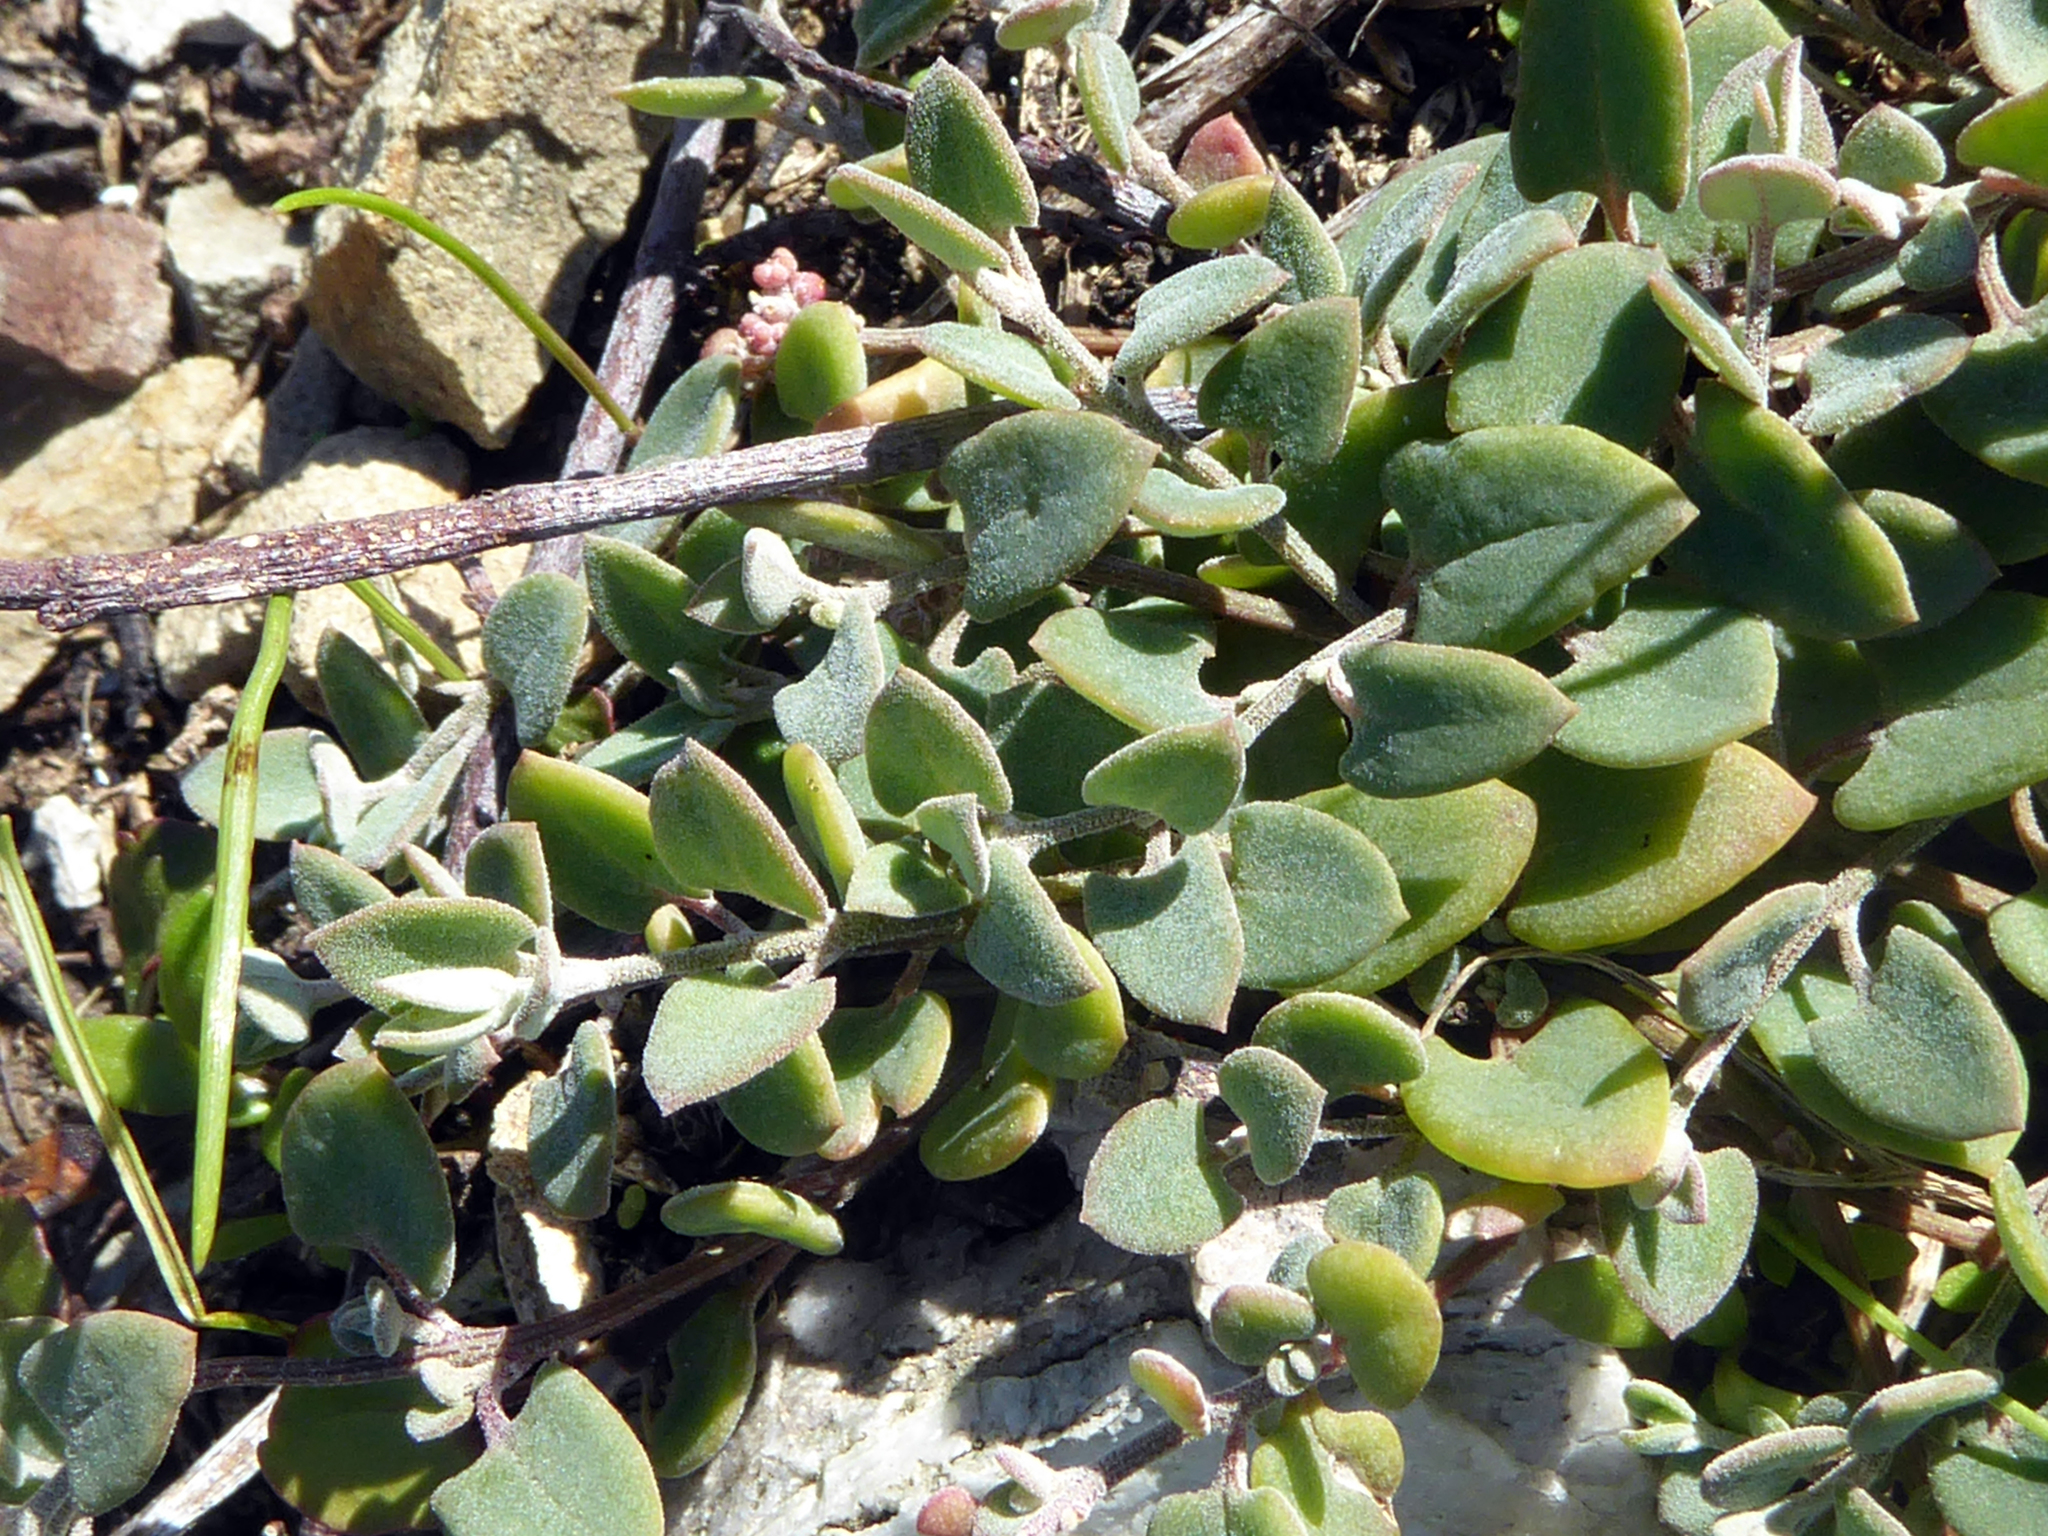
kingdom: Plantae
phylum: Tracheophyta
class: Magnoliopsida
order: Caryophyllales
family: Amaranthaceae
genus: Chenopodium
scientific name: Chenopodium triandrum
